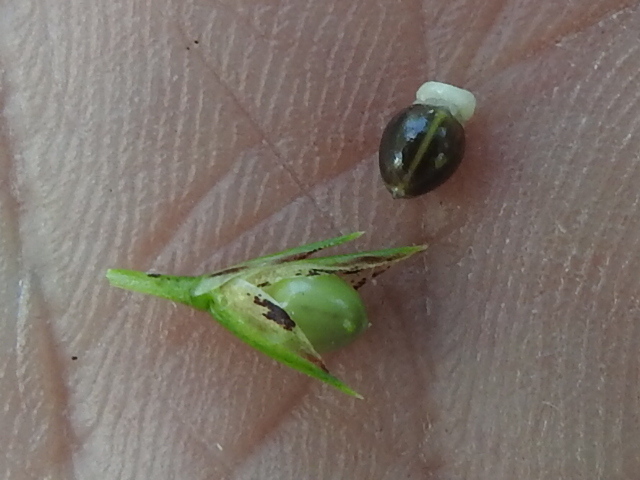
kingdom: Plantae
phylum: Tracheophyta
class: Liliopsida
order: Poales
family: Cyperaceae
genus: Scleria
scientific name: Scleria triglomerata
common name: Whip nutrush
